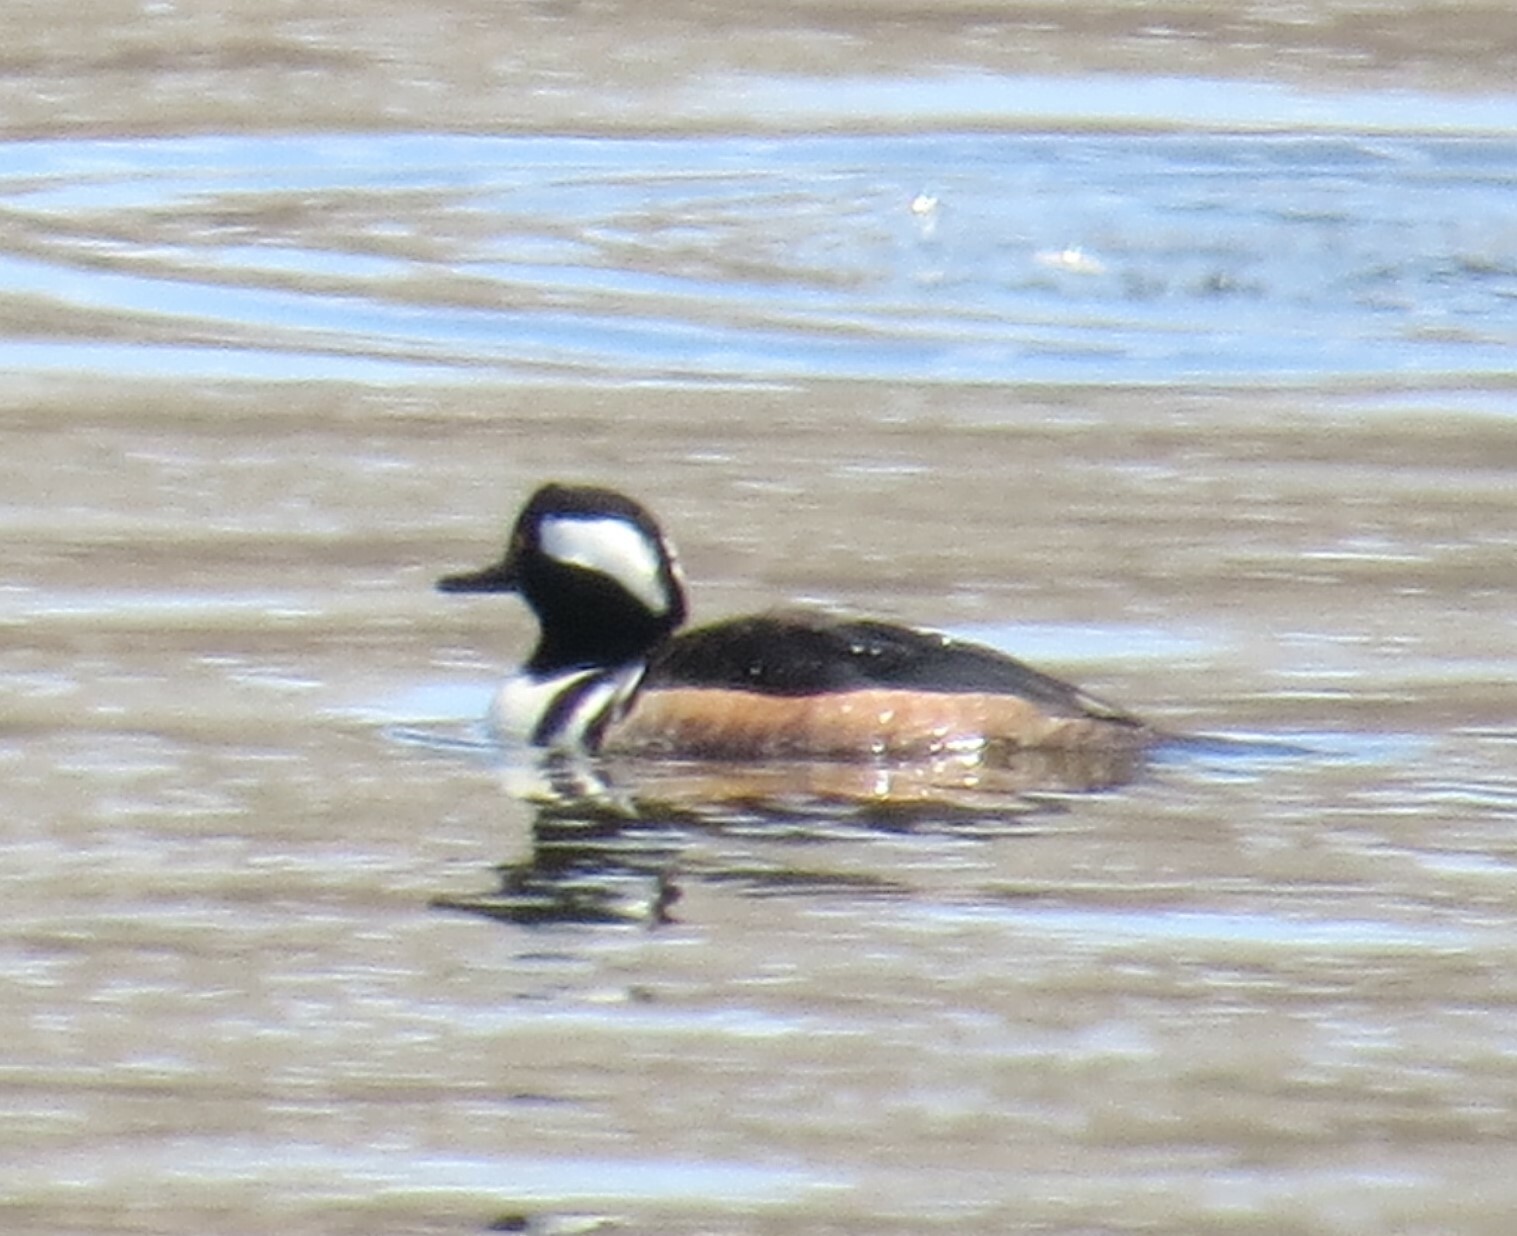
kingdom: Animalia
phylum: Chordata
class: Aves
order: Anseriformes
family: Anatidae
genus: Lophodytes
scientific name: Lophodytes cucullatus
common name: Hooded merganser
